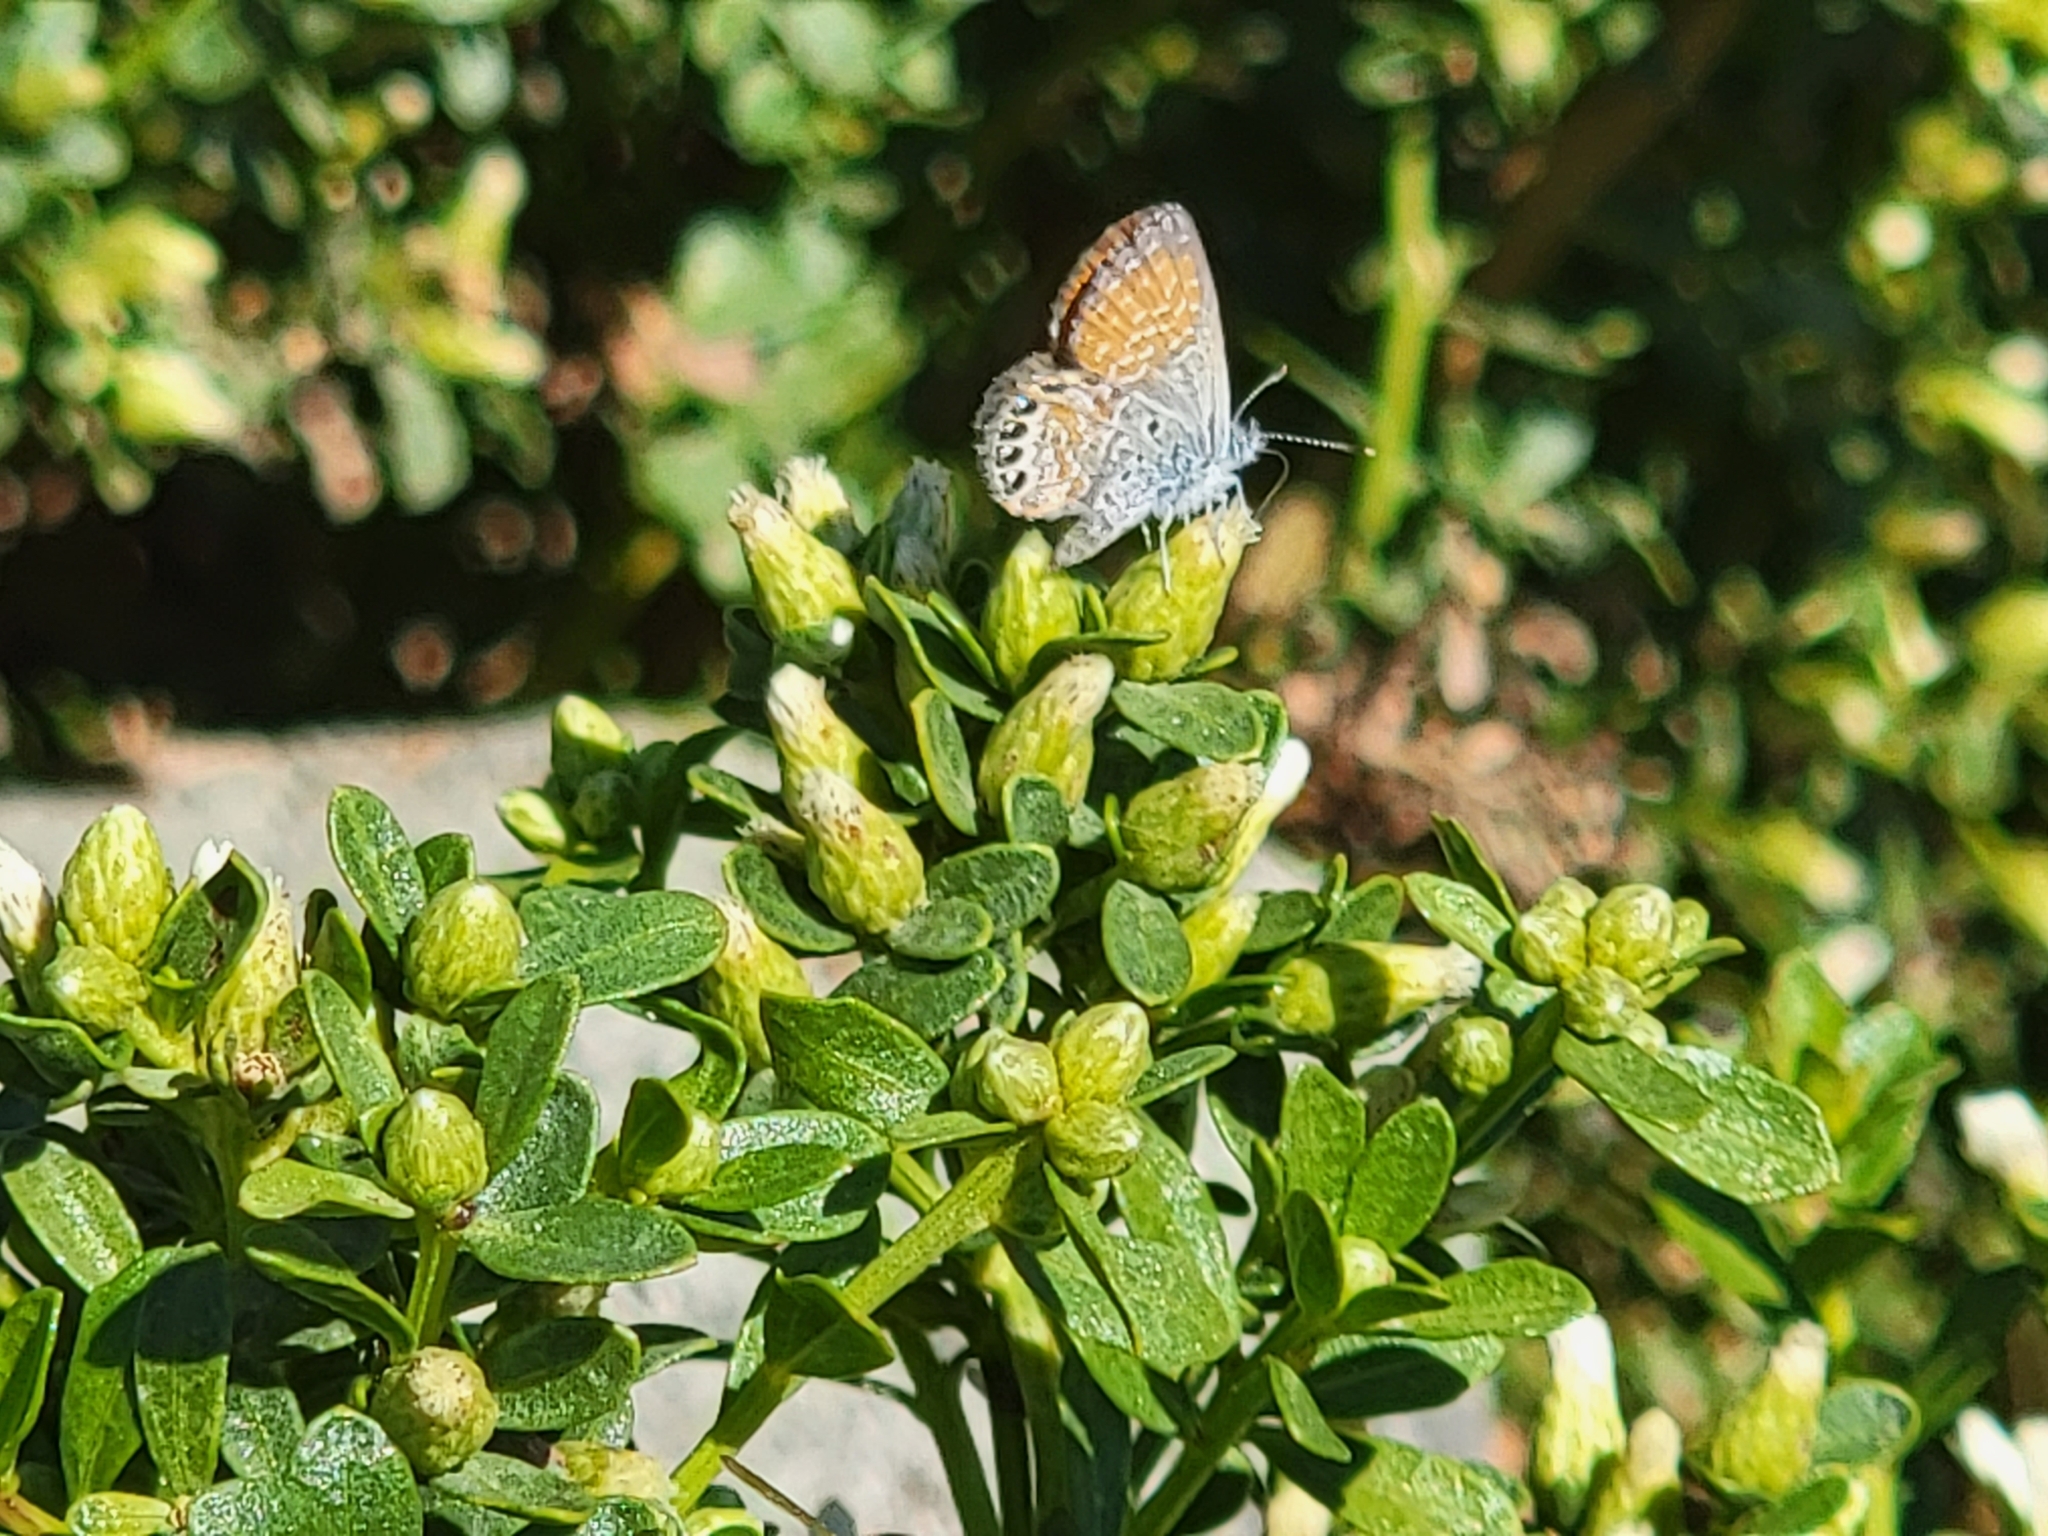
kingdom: Animalia
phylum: Arthropoda
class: Insecta
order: Lepidoptera
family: Lycaenidae
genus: Brephidium
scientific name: Brephidium exilis
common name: Pygmy blue
